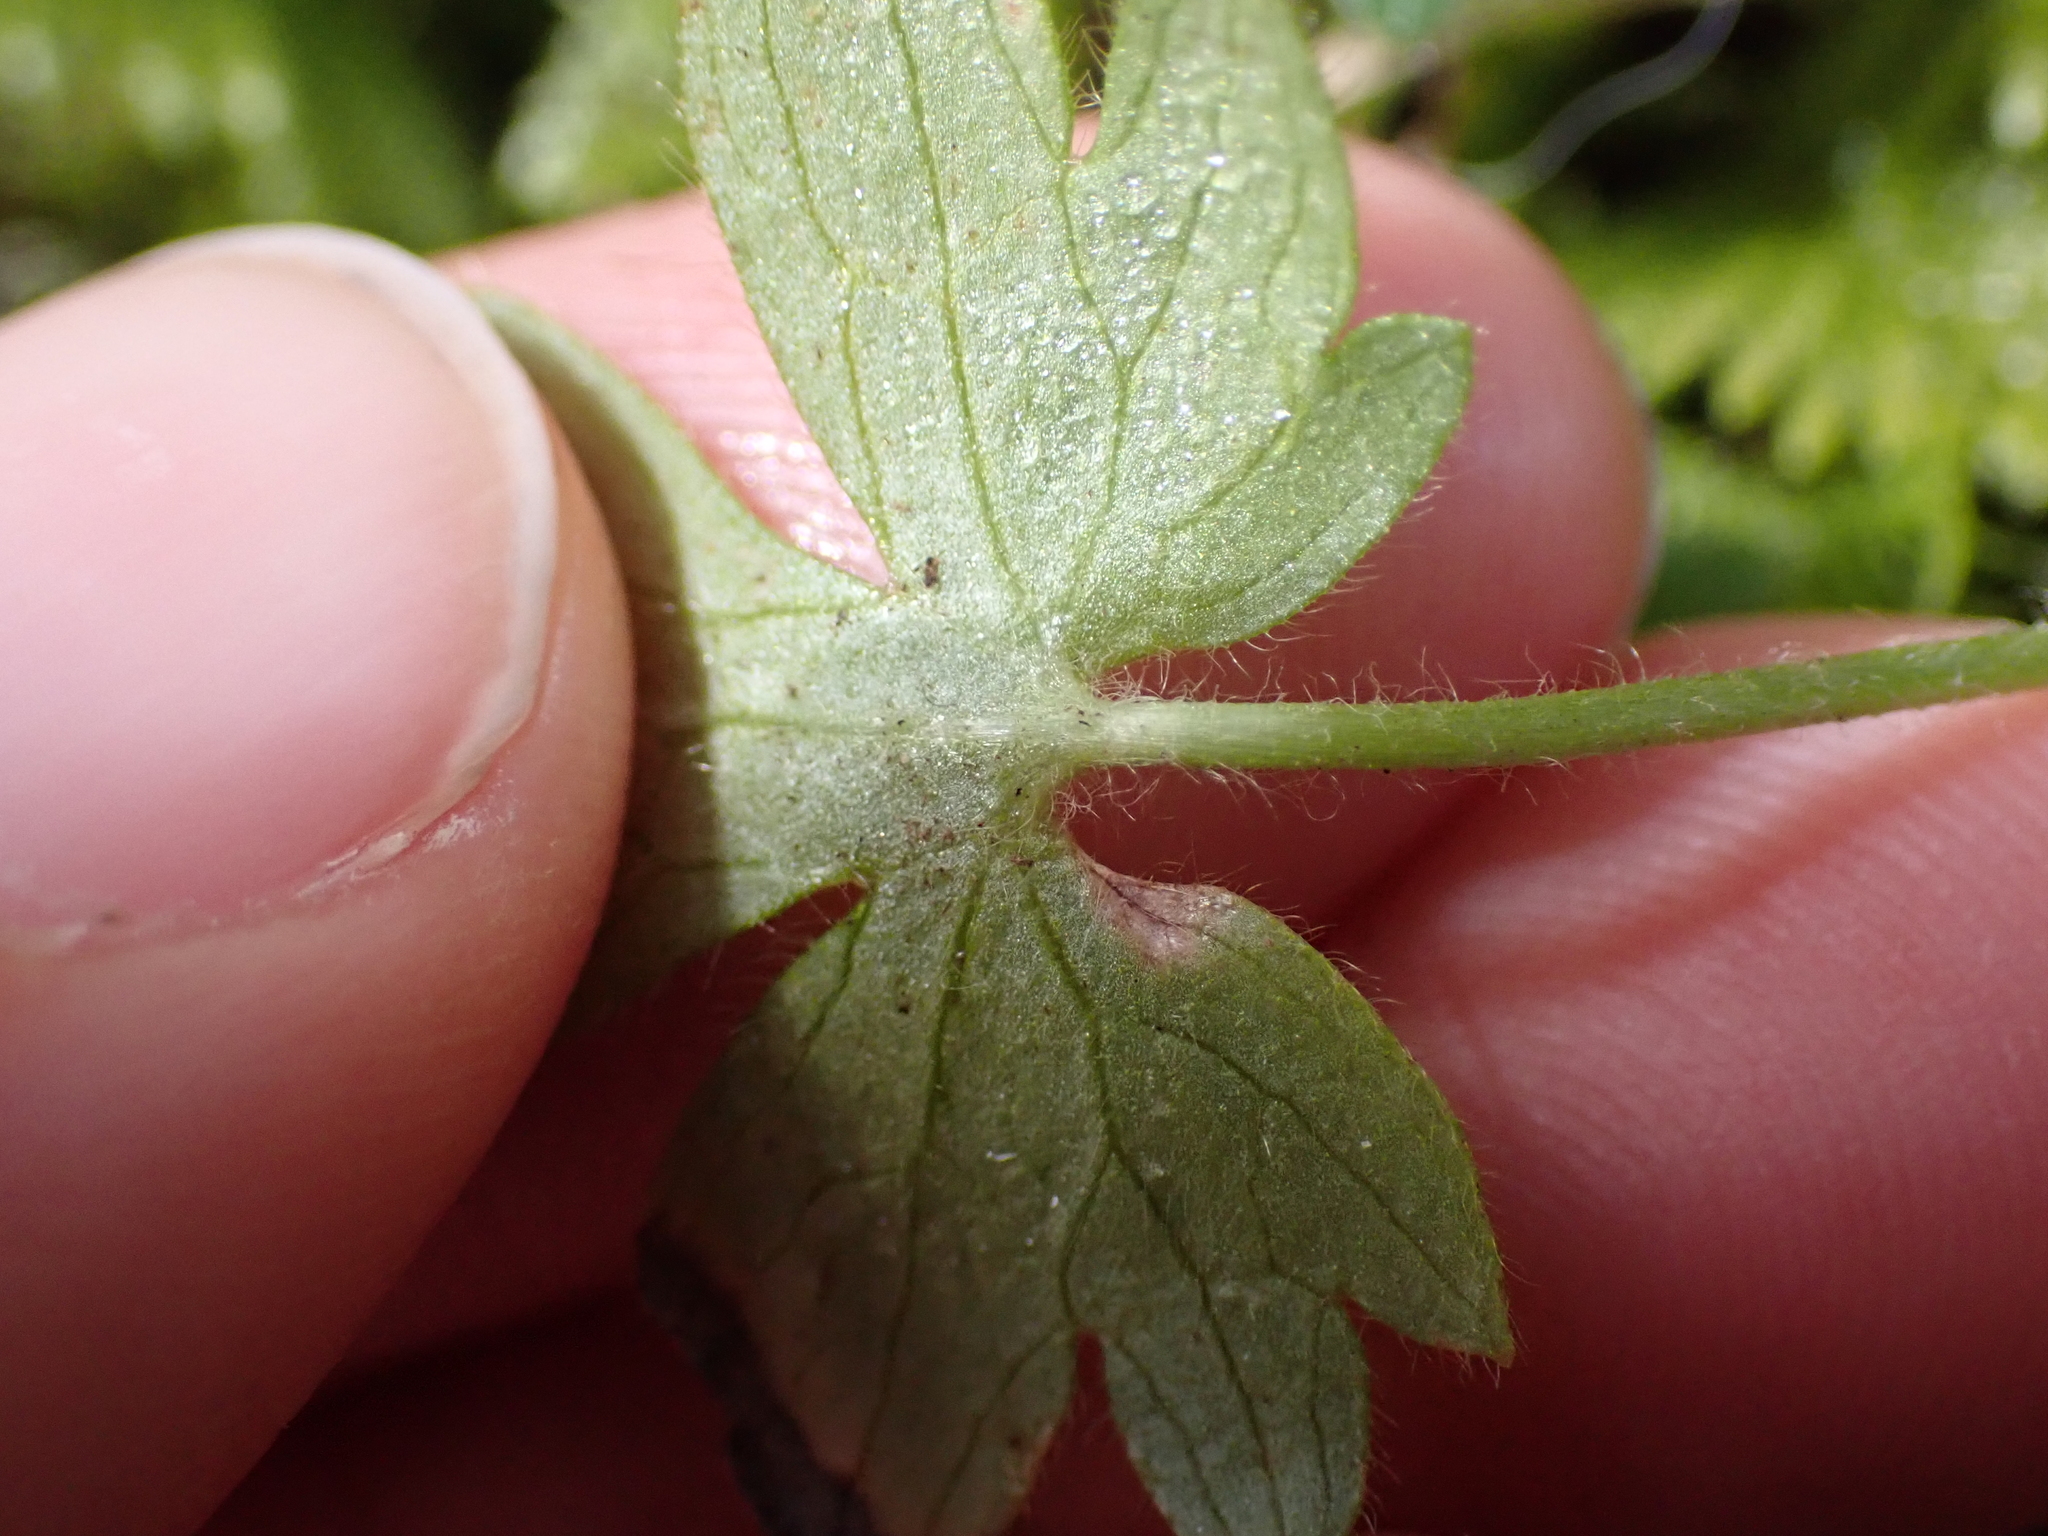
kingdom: Plantae
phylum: Tracheophyta
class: Magnoliopsida
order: Ranunculales
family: Ranunculaceae
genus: Ranunculus
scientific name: Ranunculus occidentalis
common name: Western buttercup
